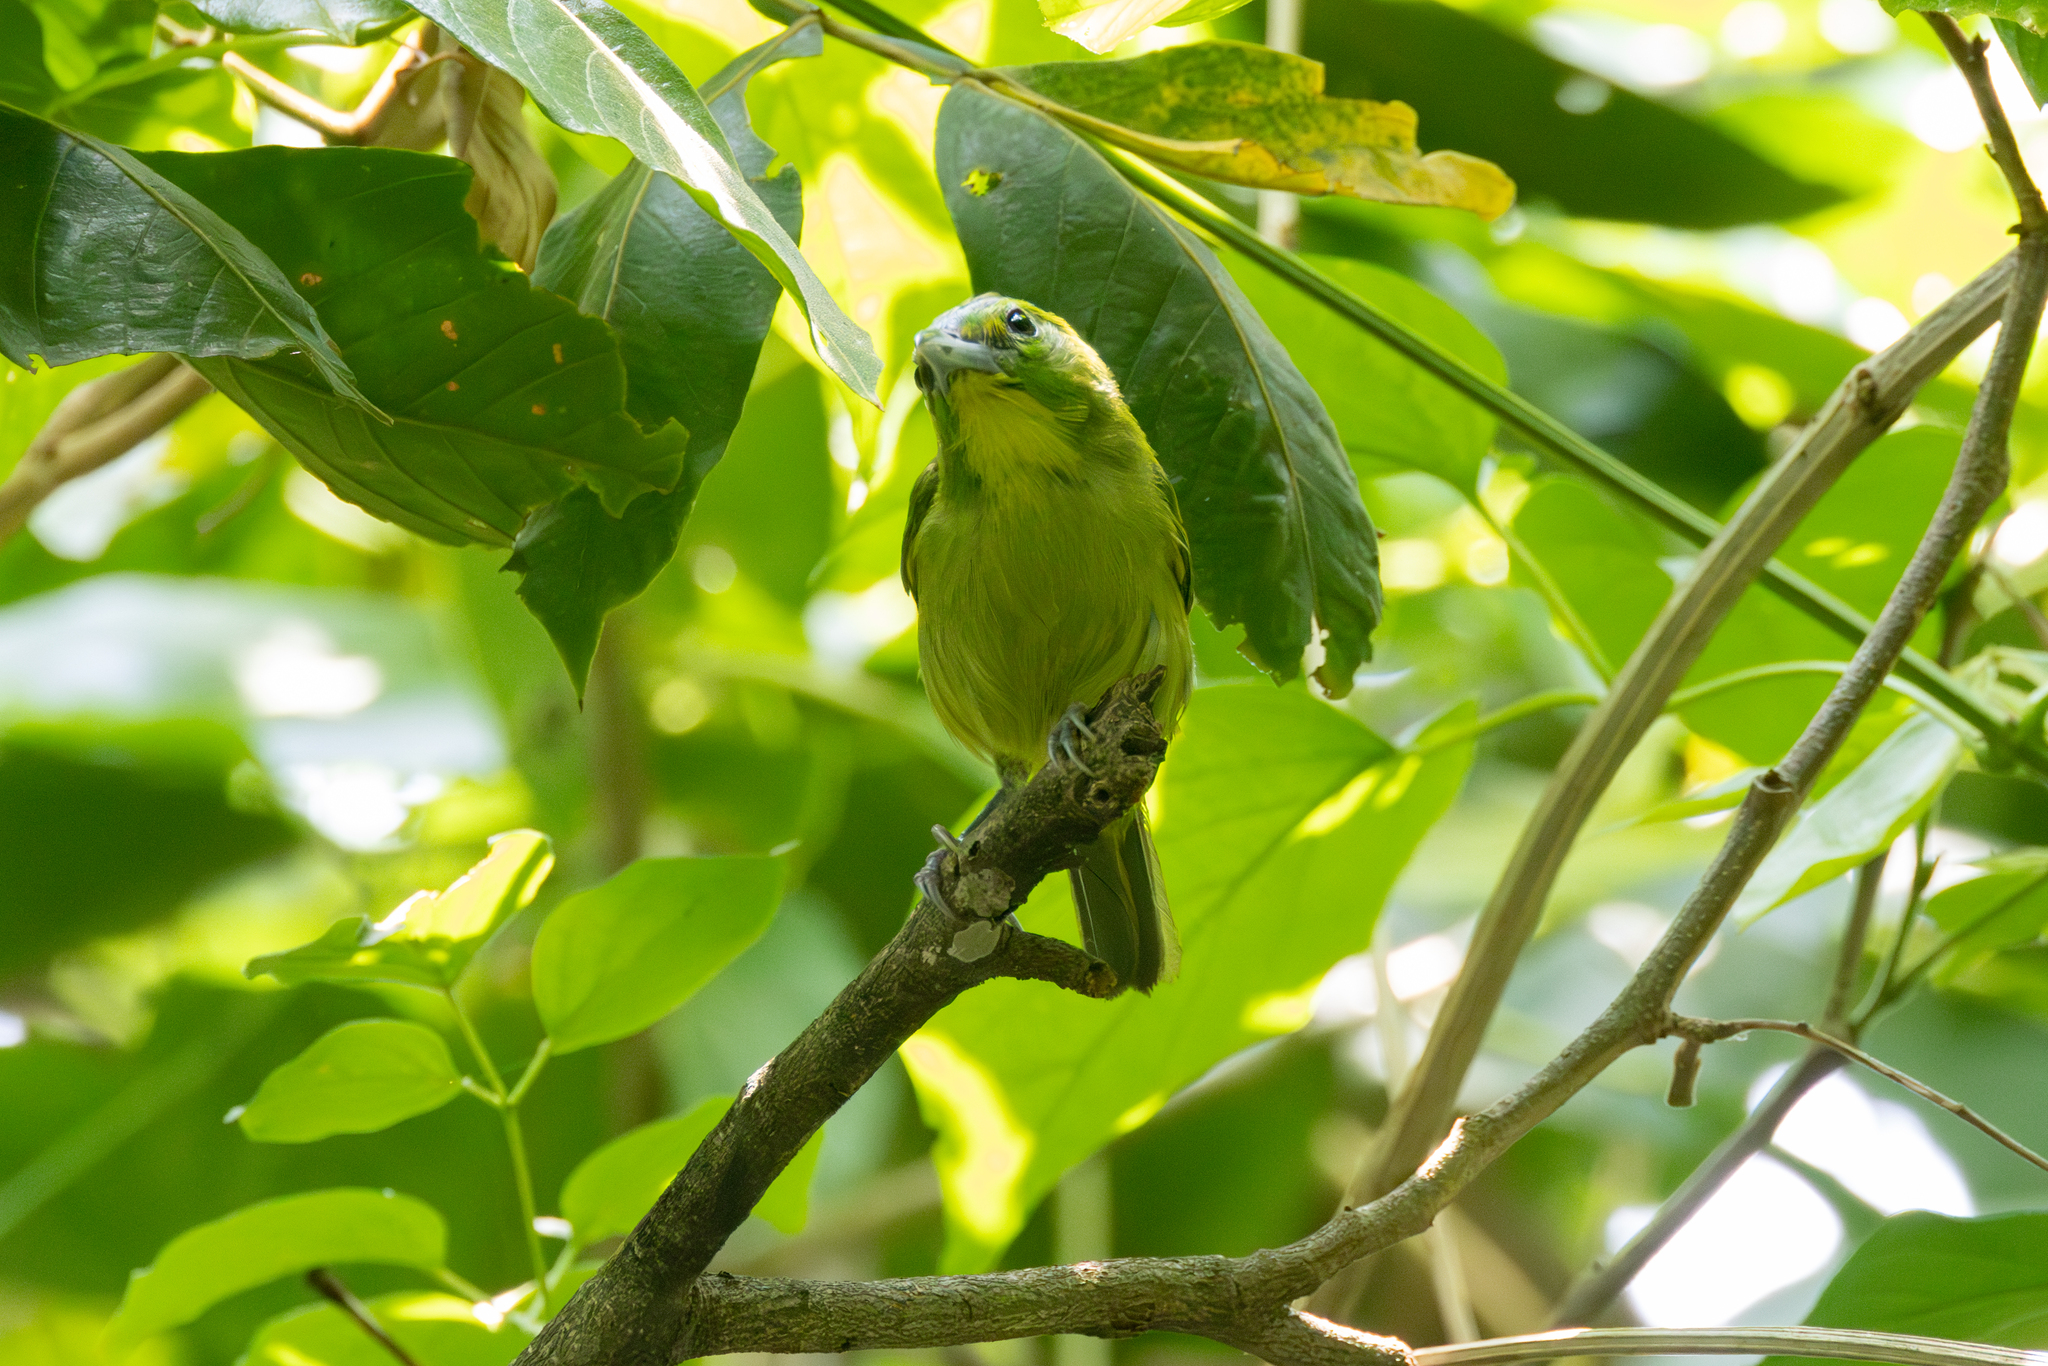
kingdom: Animalia
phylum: Chordata
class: Aves
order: Passeriformes
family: Vireonidae
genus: Vireolanius
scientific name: Vireolanius pulchellus
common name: Green shrike-vireo
